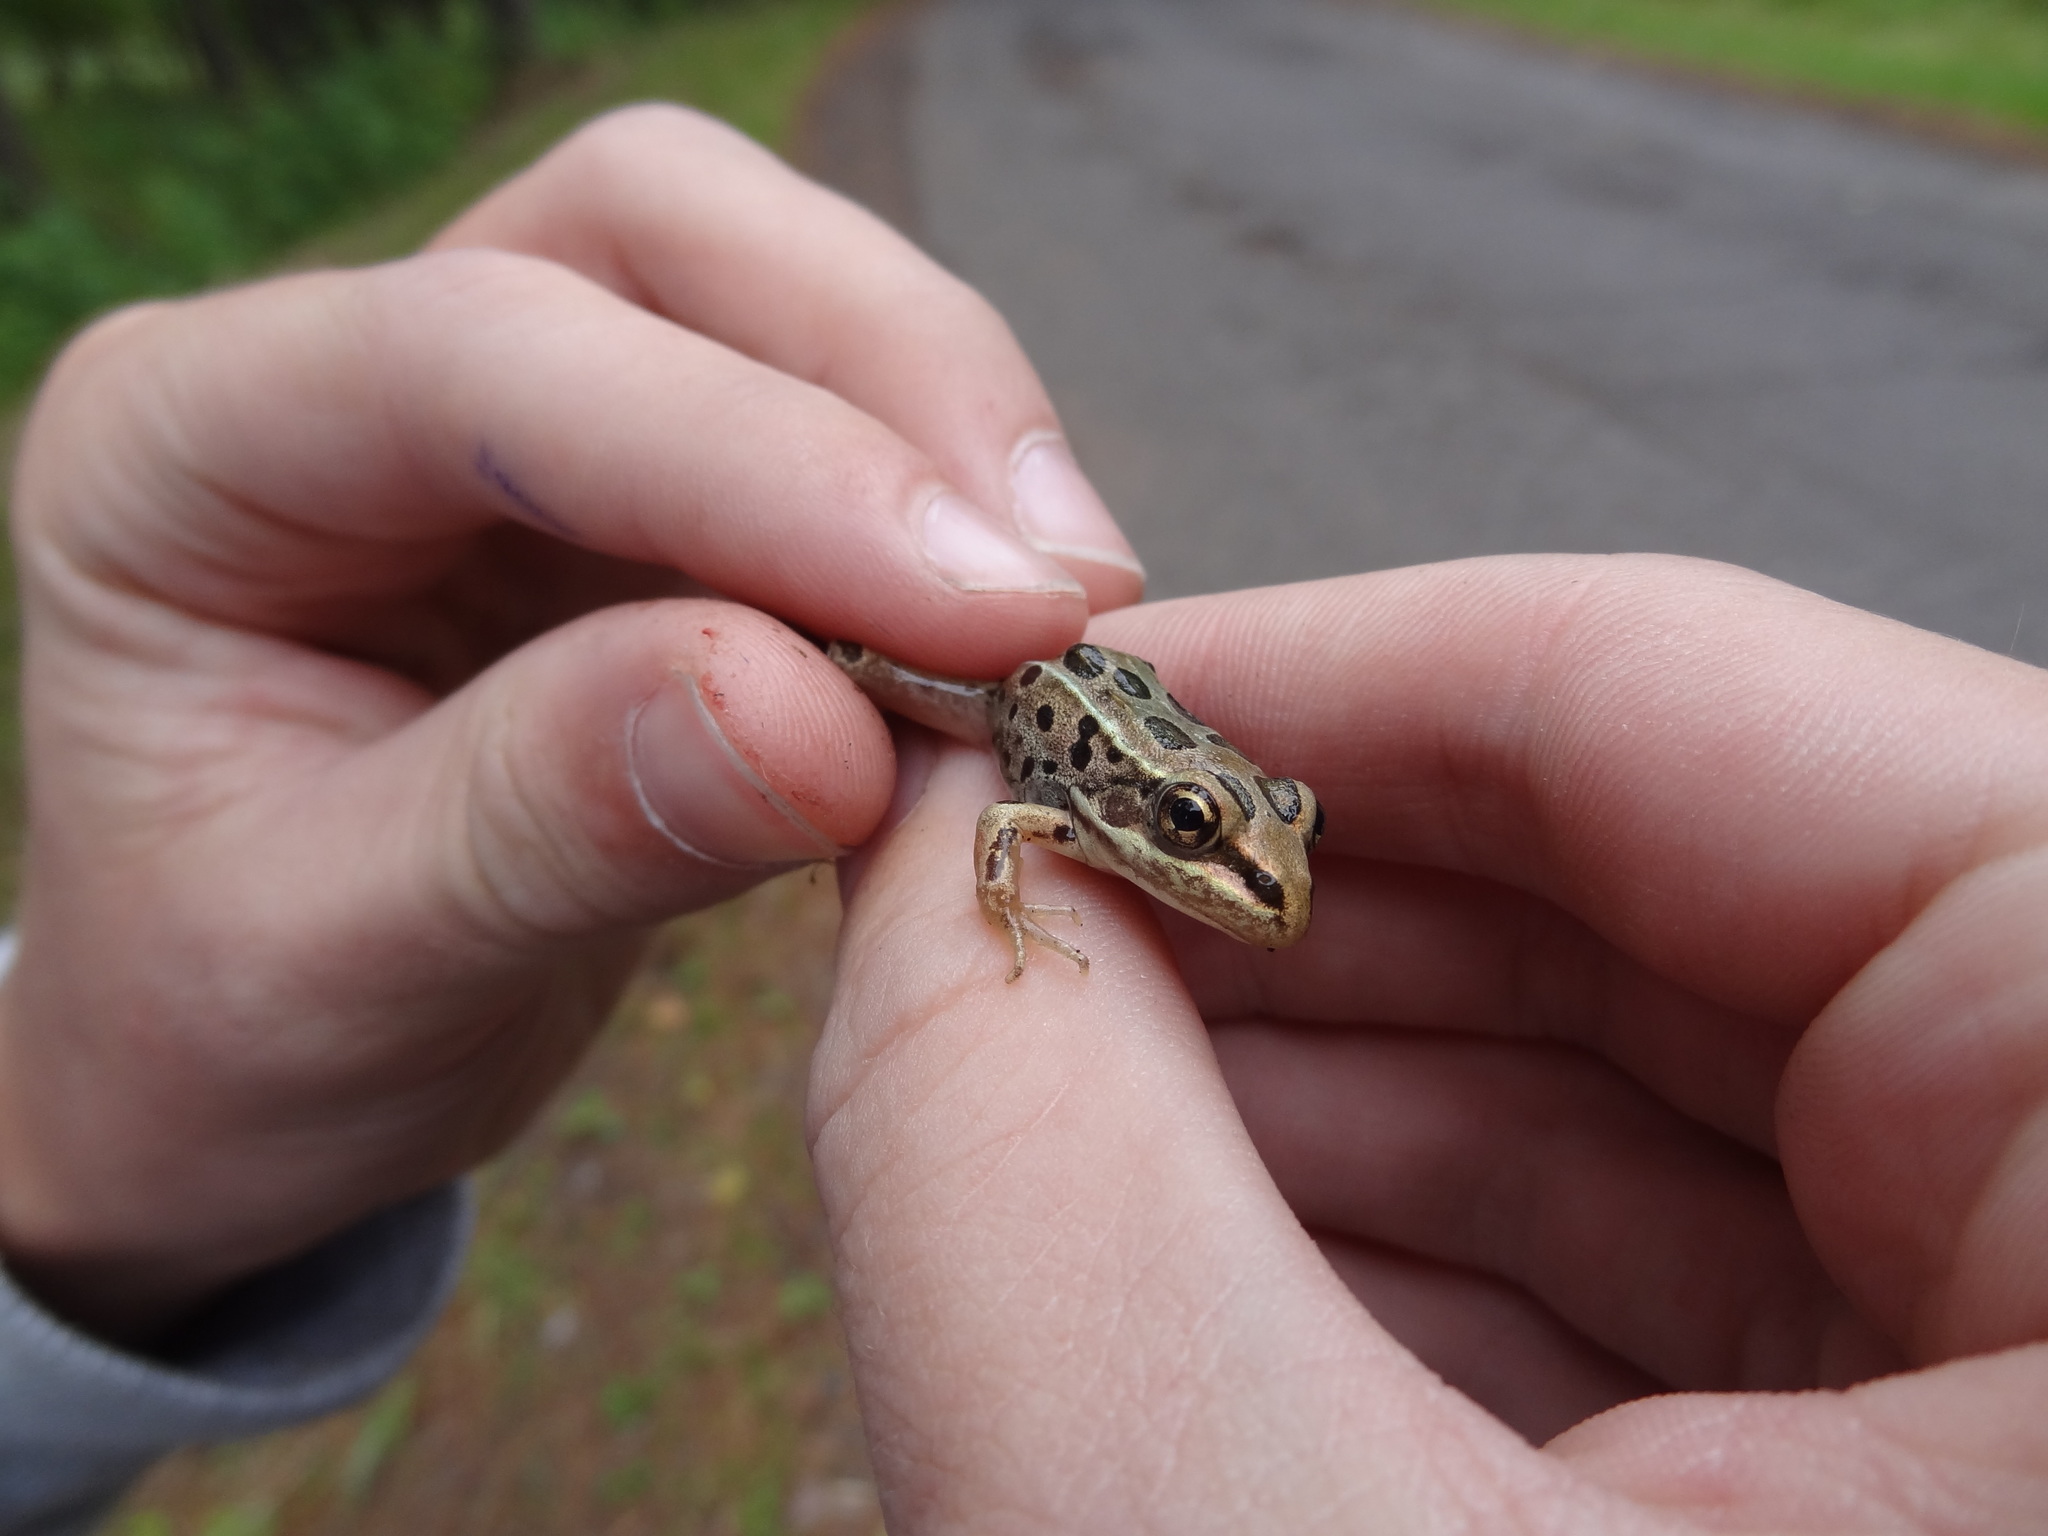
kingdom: Animalia
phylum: Chordata
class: Amphibia
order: Anura
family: Ranidae
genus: Lithobates
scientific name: Lithobates pipiens
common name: Northern leopard frog
